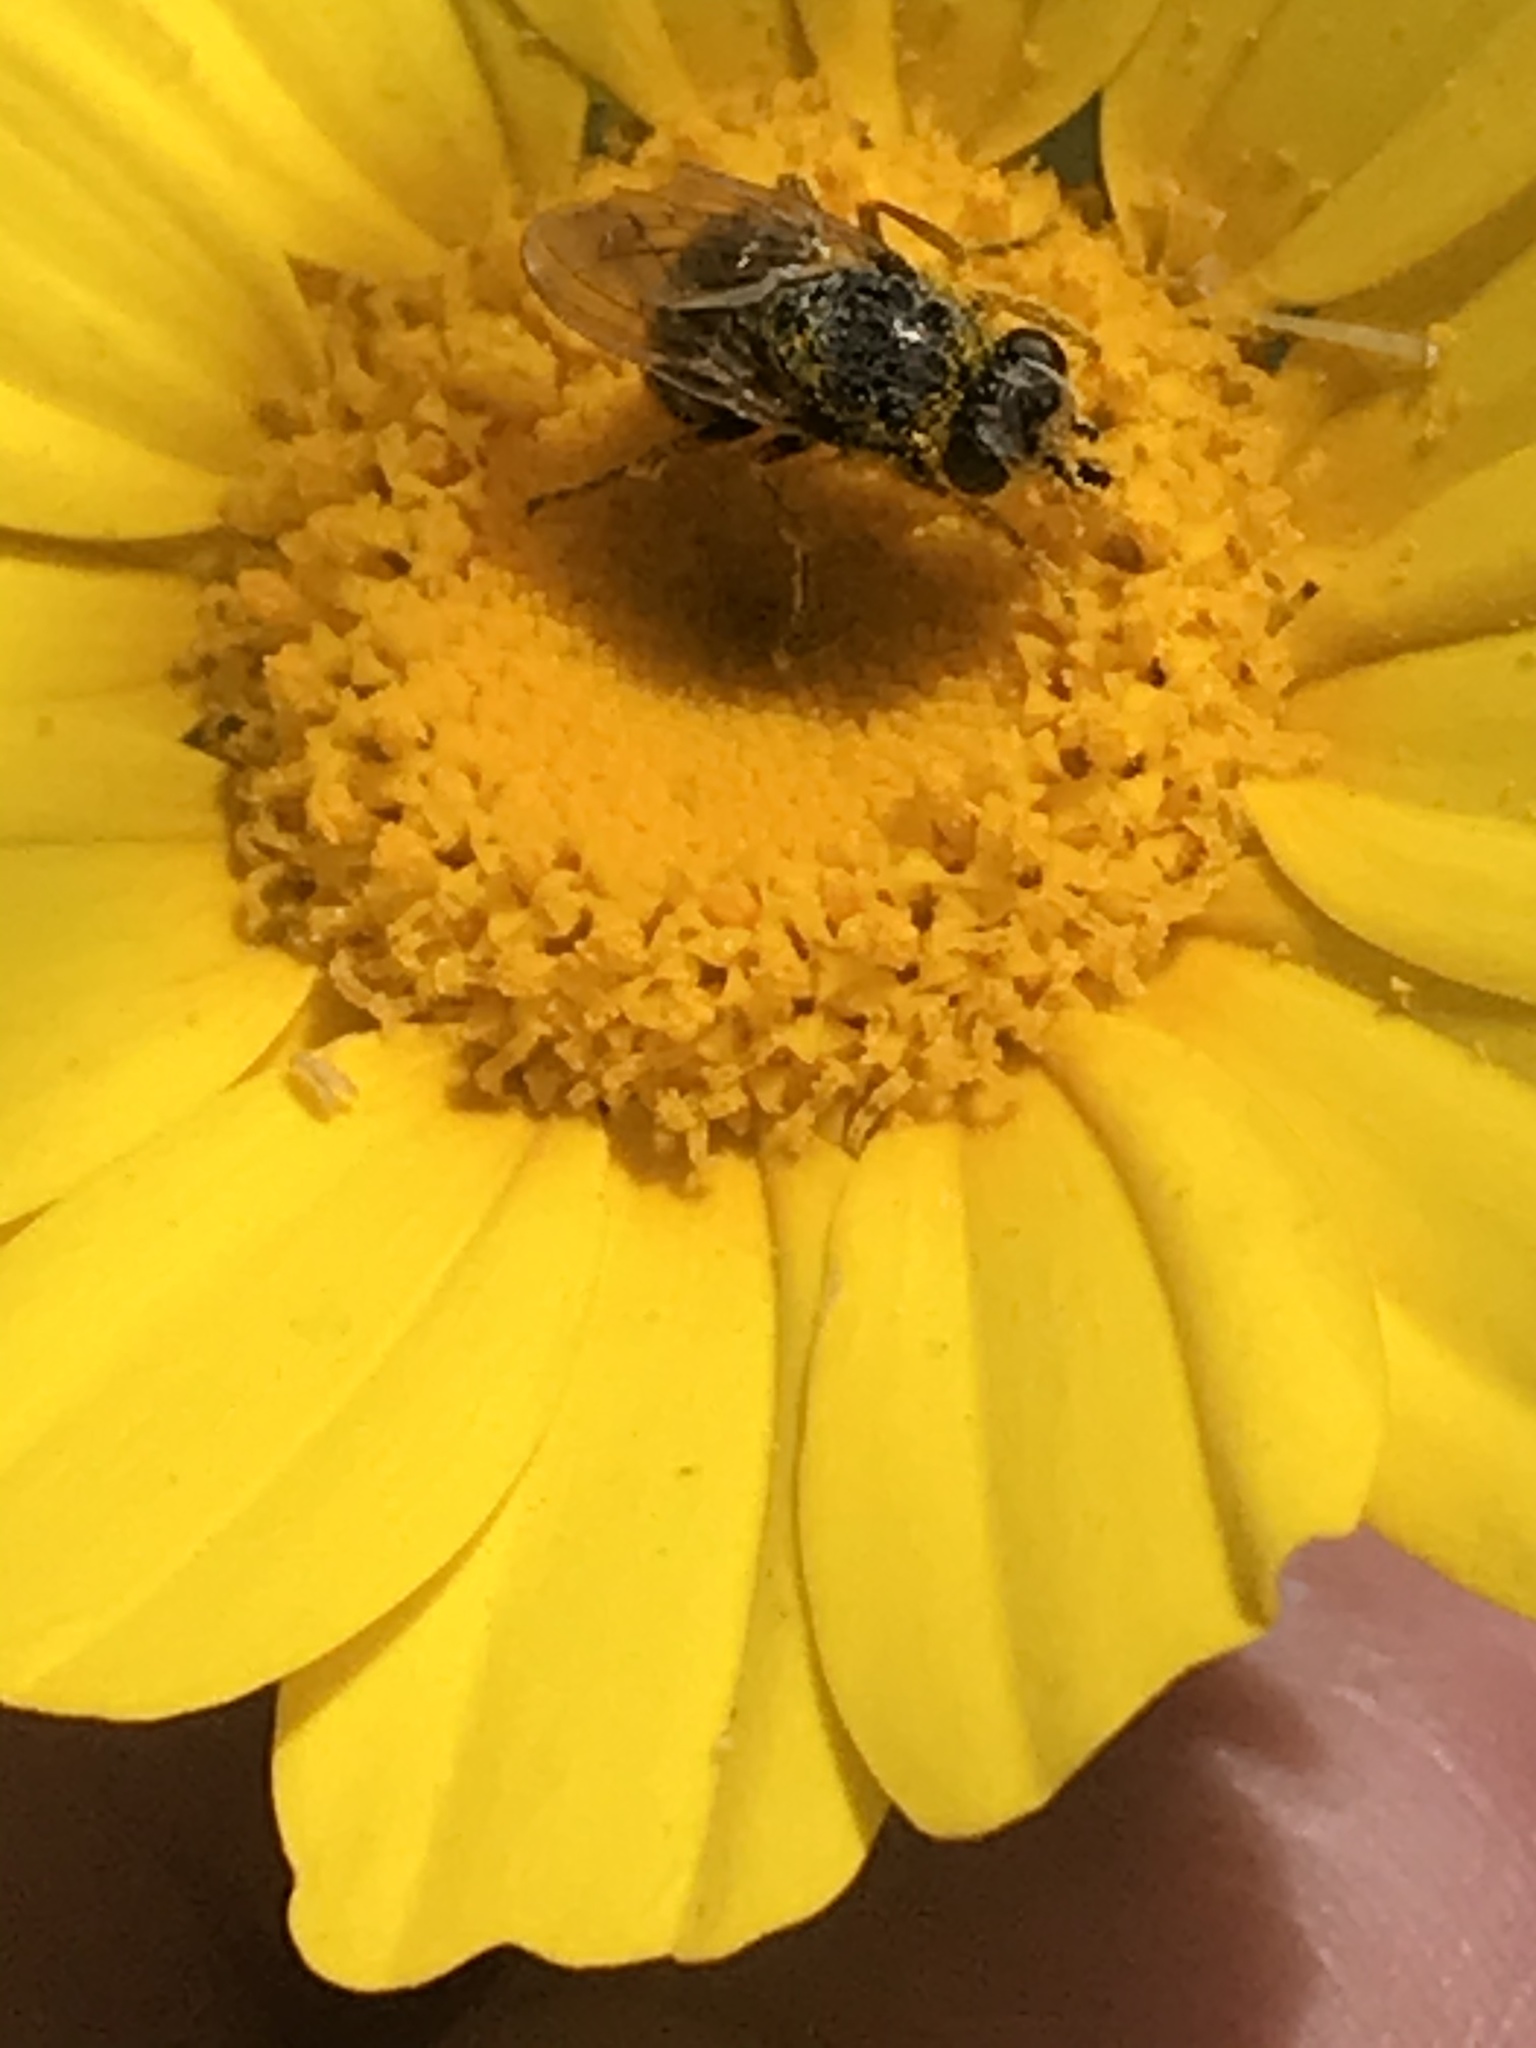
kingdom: Animalia
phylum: Arthropoda
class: Insecta
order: Diptera
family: Ulidiidae
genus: Tetropismenus
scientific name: Tetropismenus hirtus
